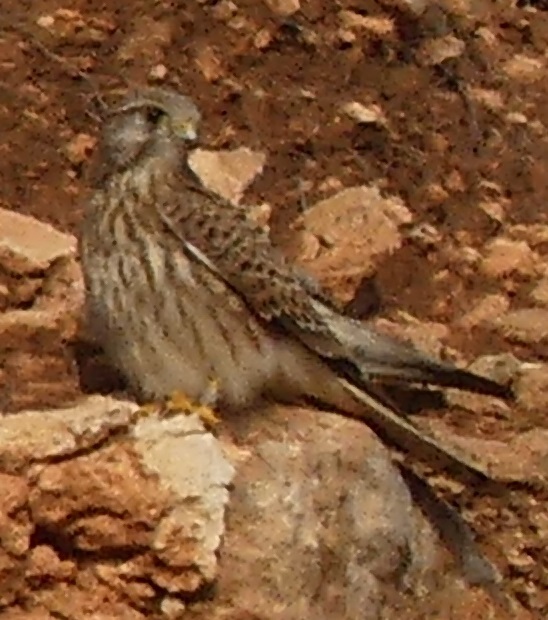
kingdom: Animalia
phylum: Chordata
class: Aves
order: Falconiformes
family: Falconidae
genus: Falco
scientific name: Falco tinnunculus
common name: Common kestrel
